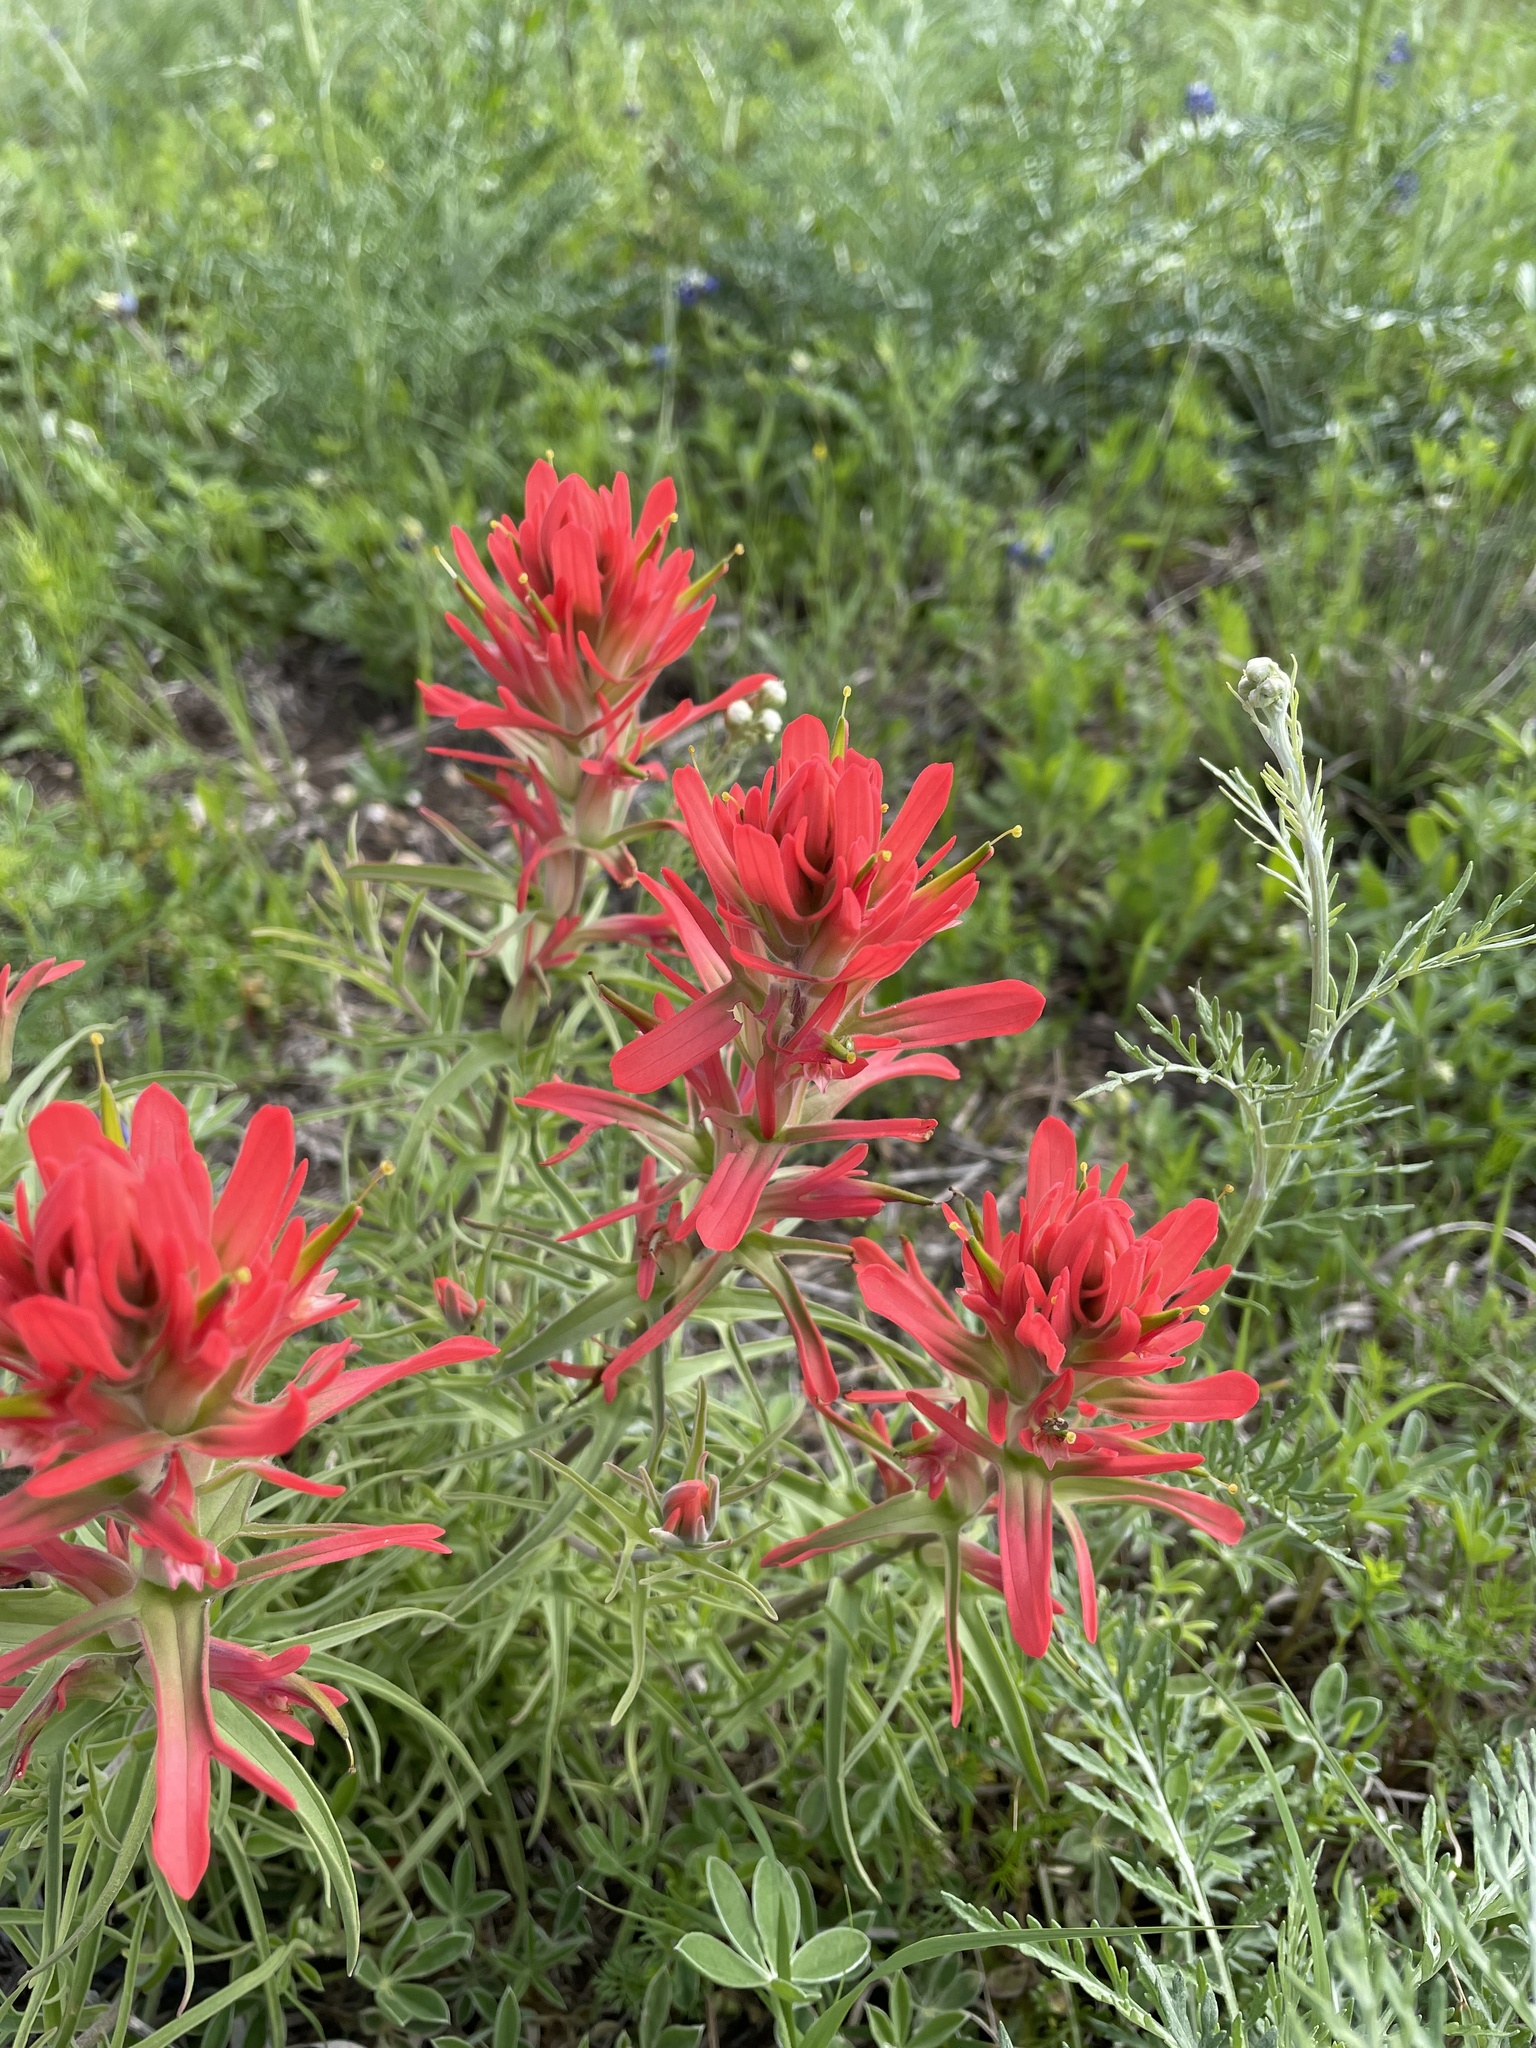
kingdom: Plantae
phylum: Tracheophyta
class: Magnoliopsida
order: Lamiales
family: Orobanchaceae
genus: Castilleja
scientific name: Castilleja lindheimeri
